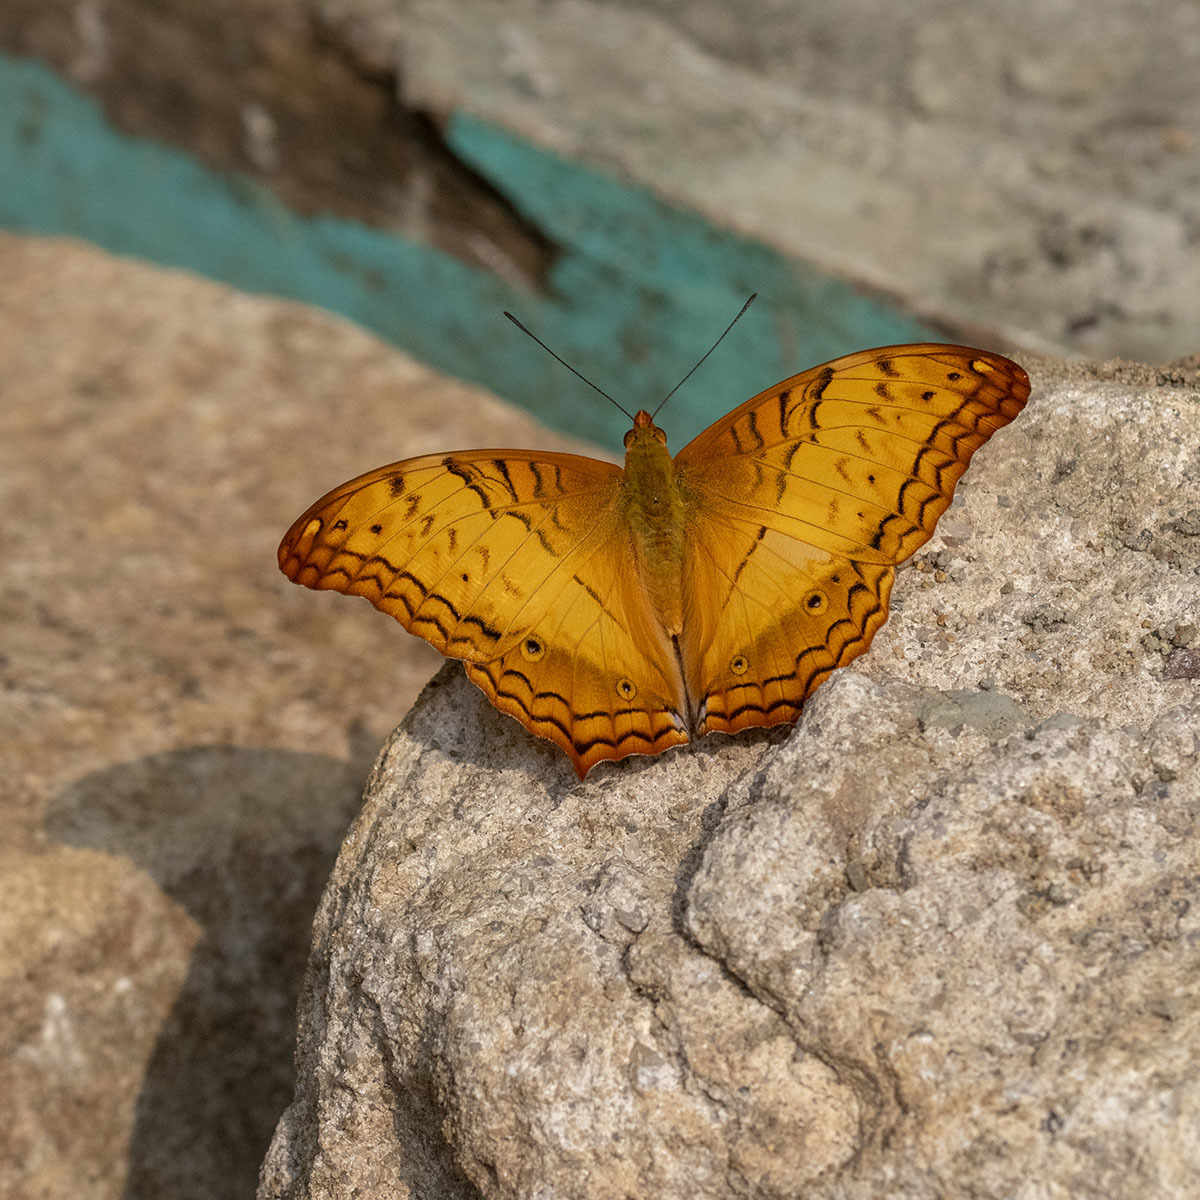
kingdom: Animalia
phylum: Arthropoda
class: Insecta
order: Lepidoptera
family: Nymphalidae
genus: Vindula
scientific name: Vindula erota
